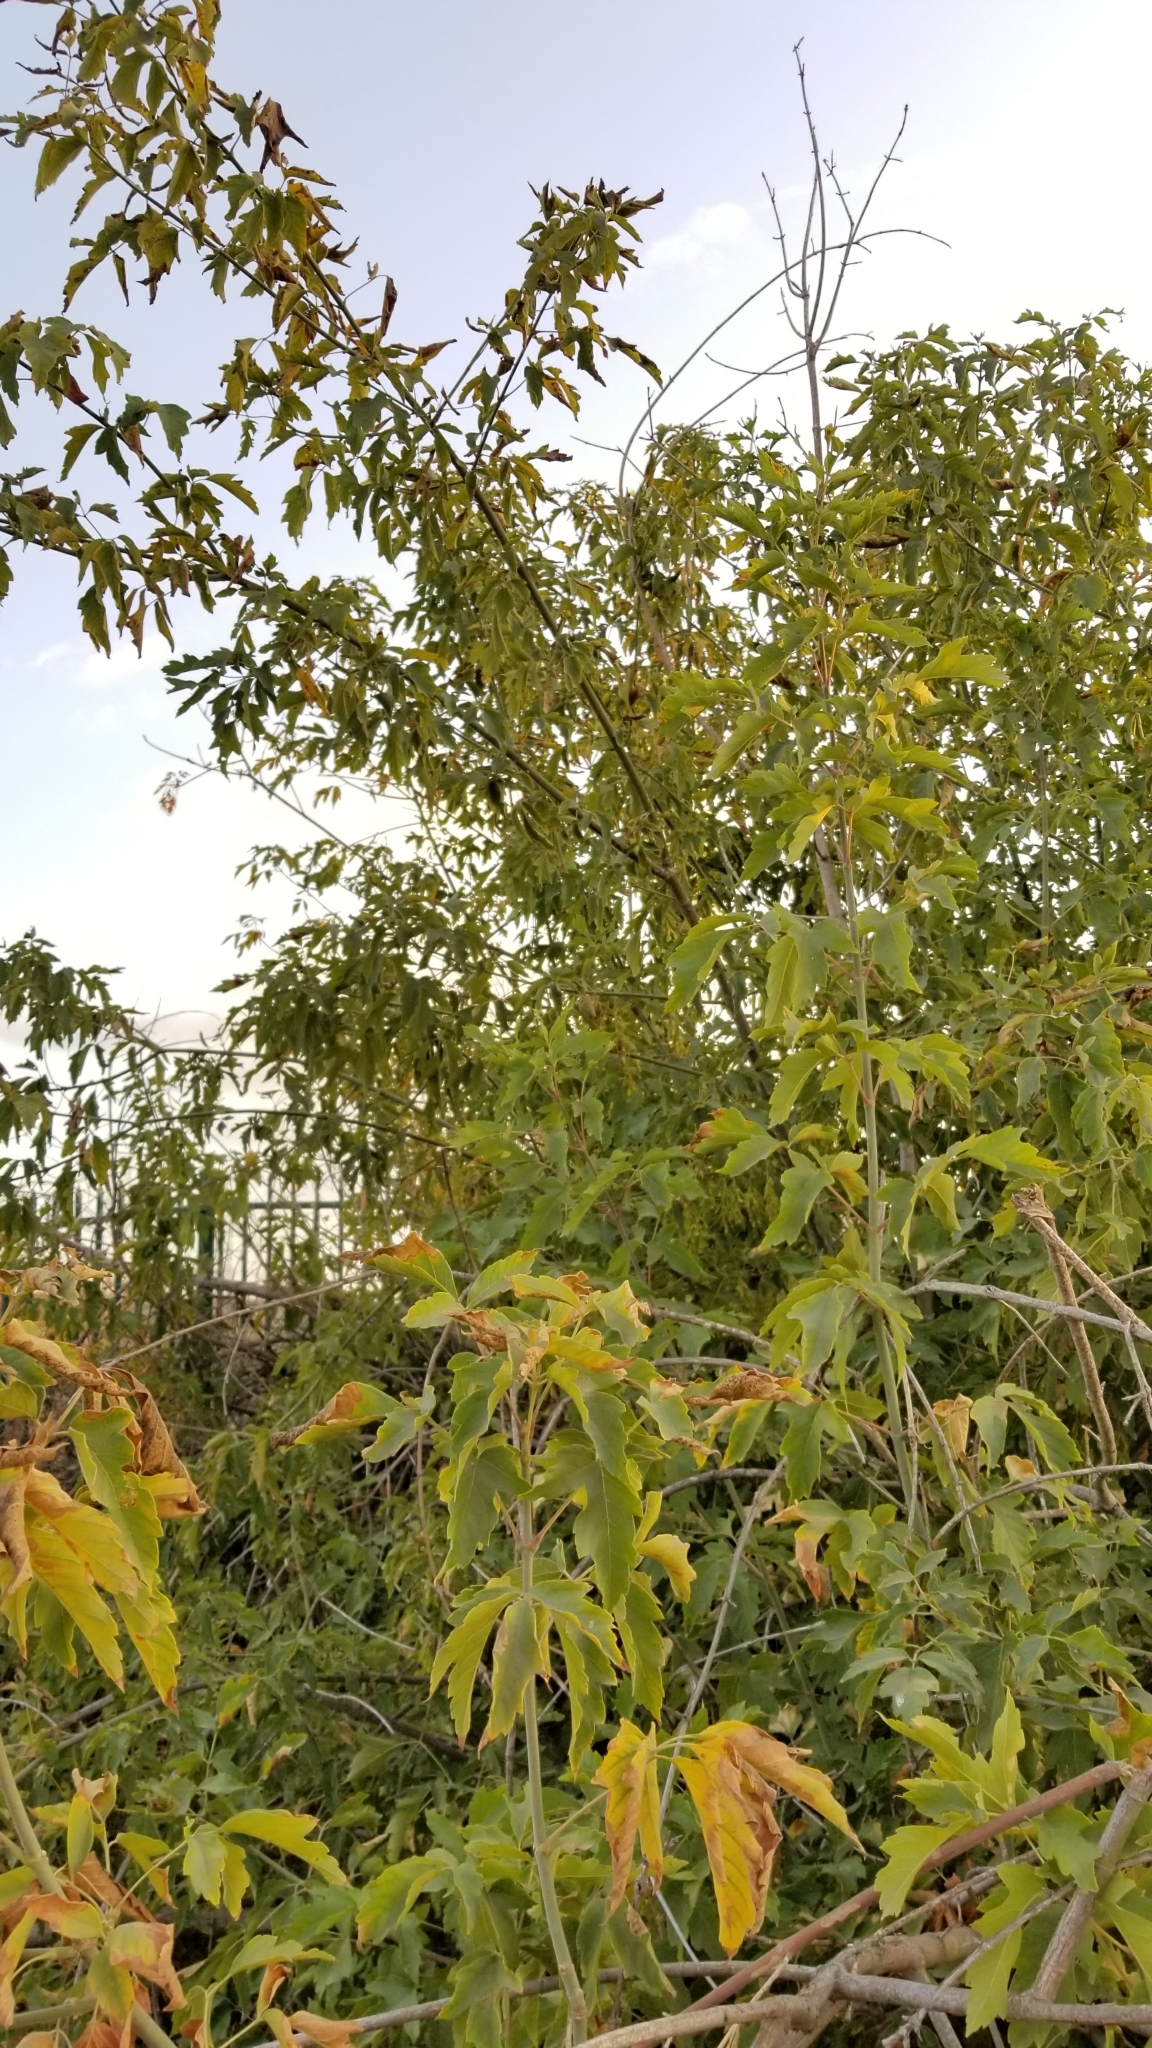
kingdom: Plantae
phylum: Tracheophyta
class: Magnoliopsida
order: Sapindales
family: Sapindaceae
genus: Acer
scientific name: Acer negundo
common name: Ashleaf maple
